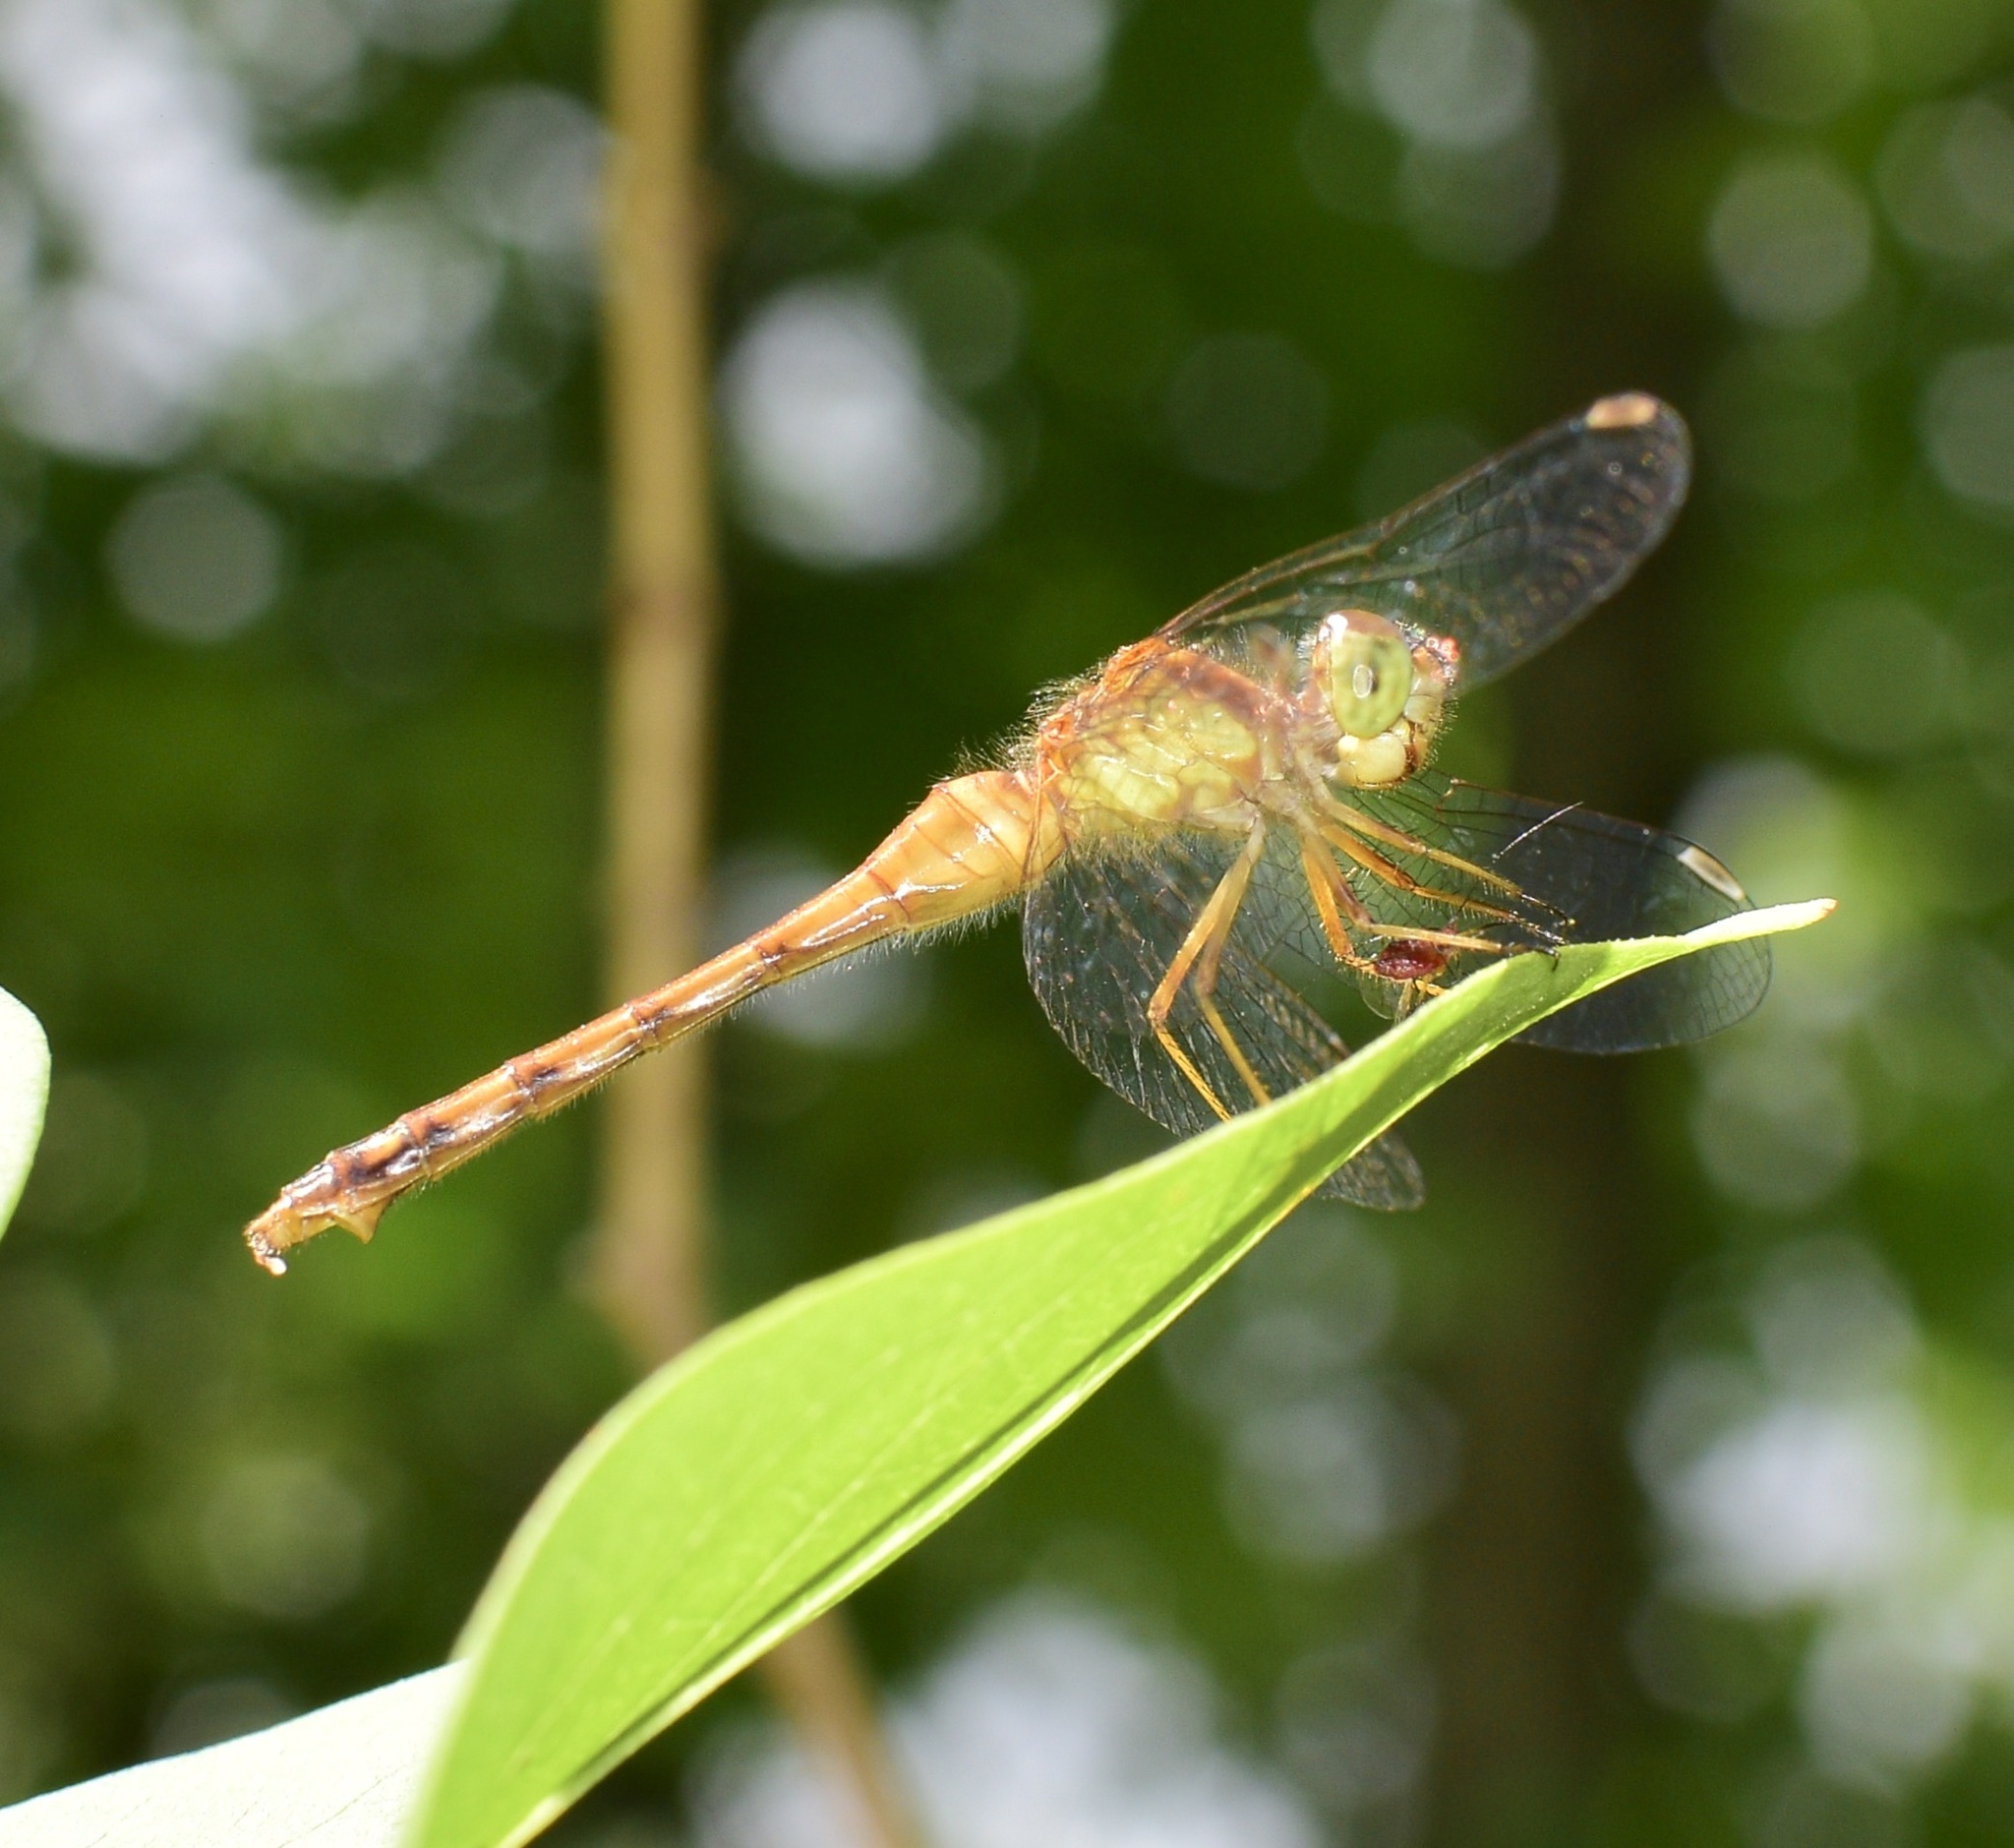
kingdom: Animalia
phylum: Arthropoda
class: Insecta
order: Odonata
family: Libellulidae
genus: Sympetrum
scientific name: Sympetrum vicinum
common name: Autumn meadowhawk
